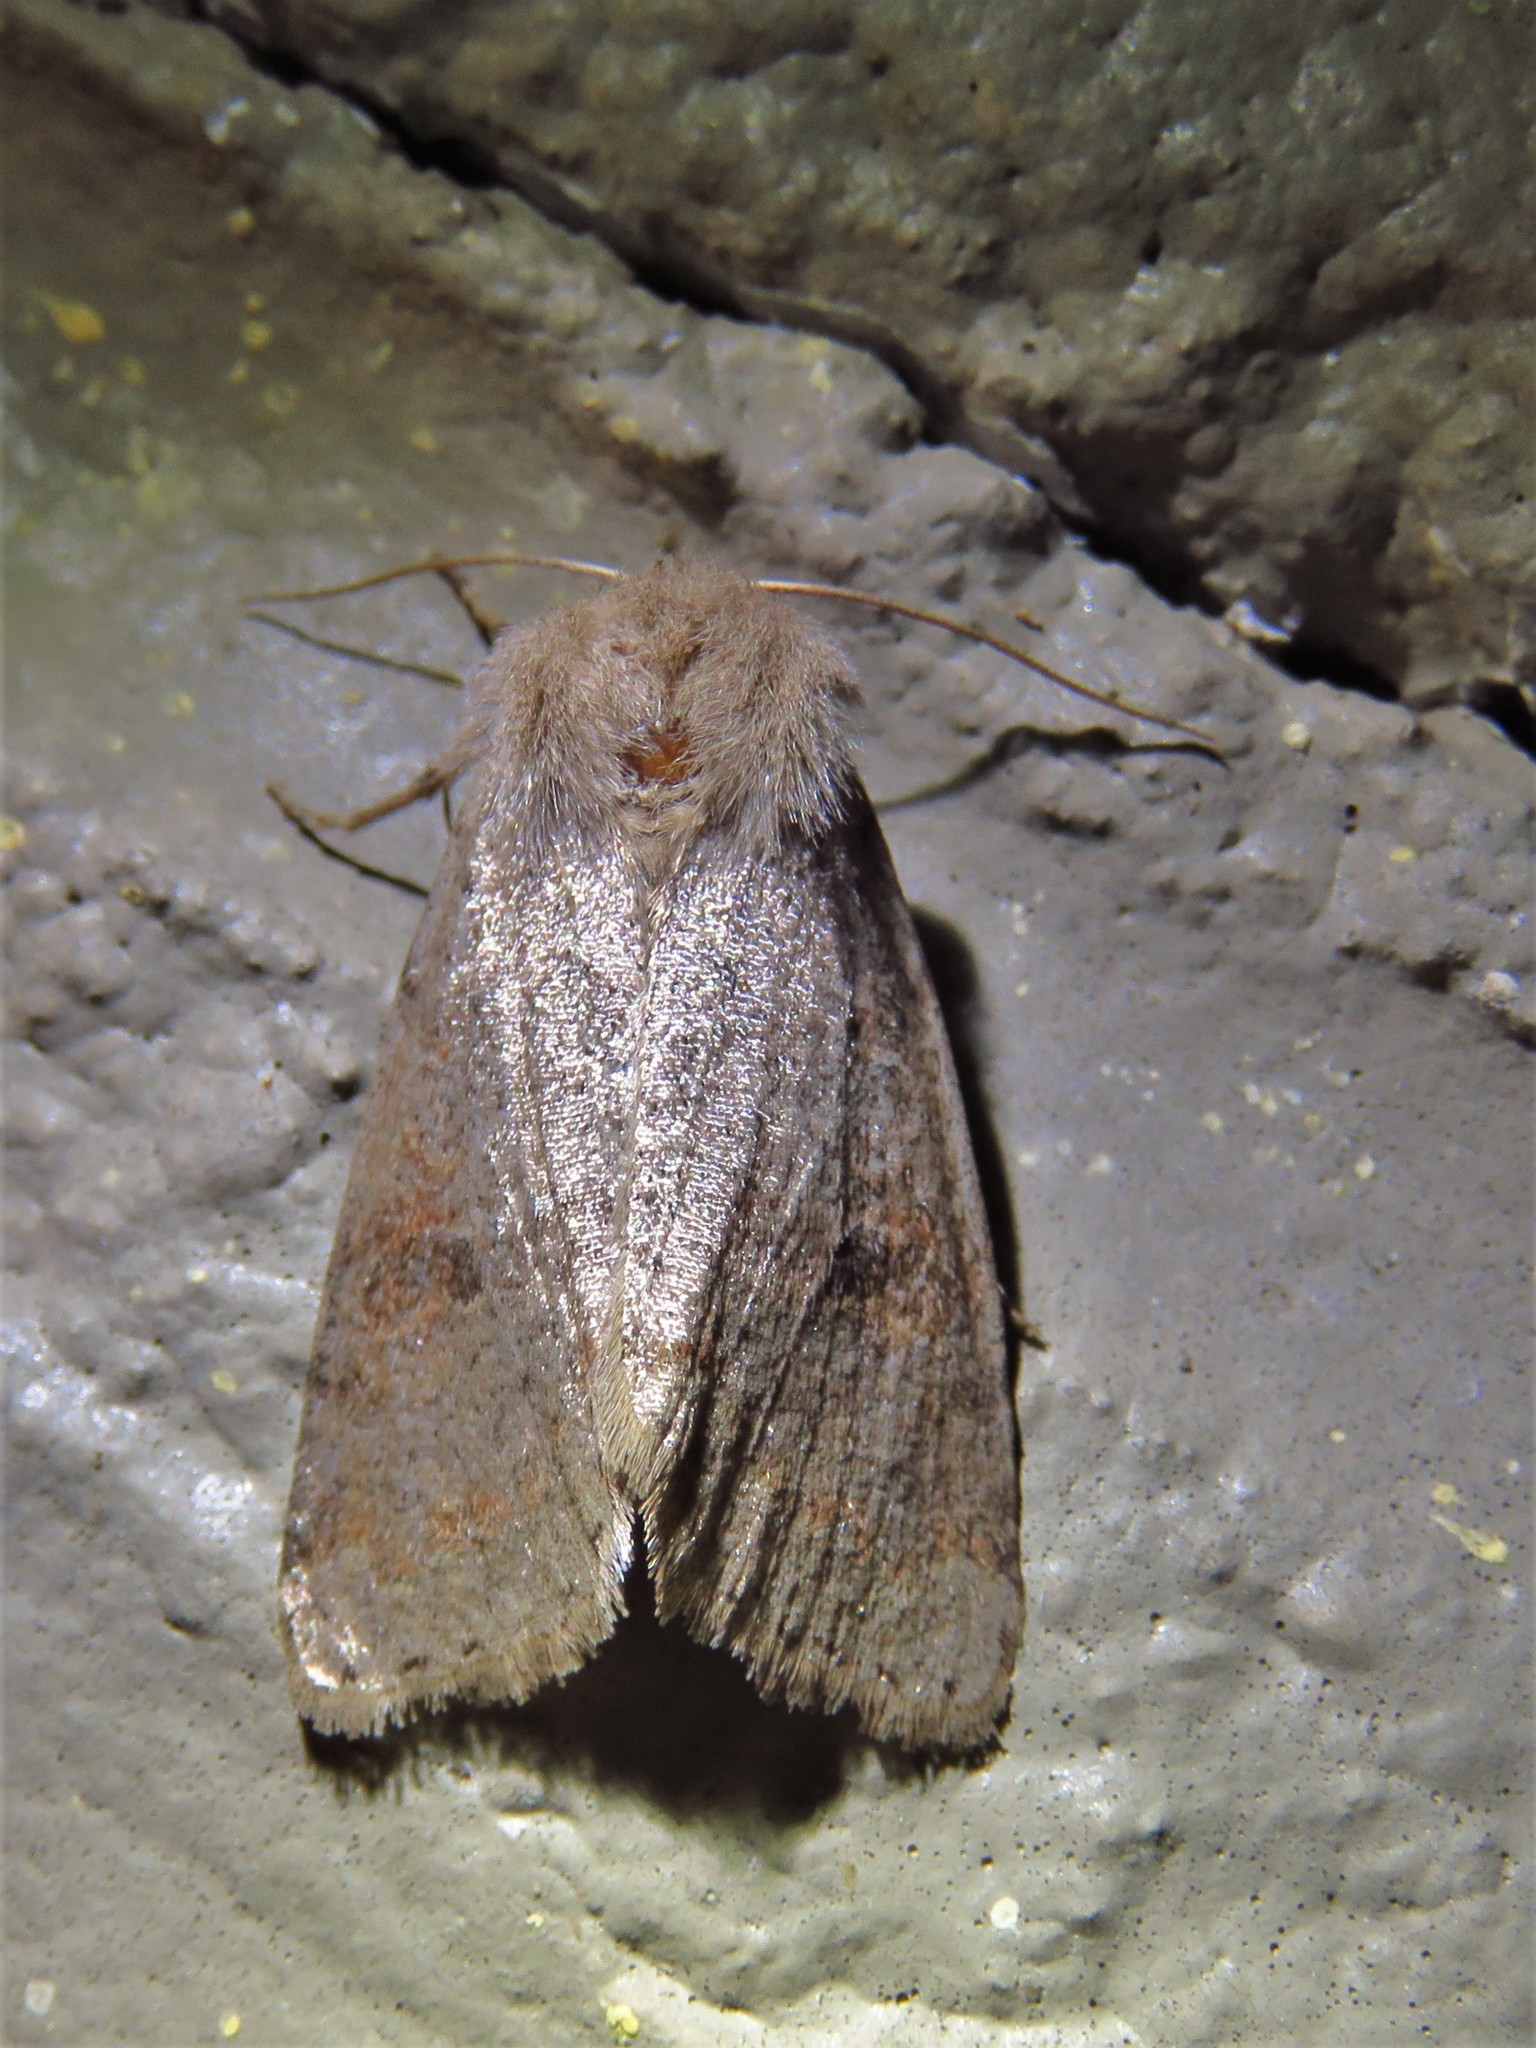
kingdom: Animalia
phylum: Arthropoda
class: Insecta
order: Lepidoptera
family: Noctuidae
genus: Orthosia
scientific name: Orthosia alurina
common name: Gray quaker
